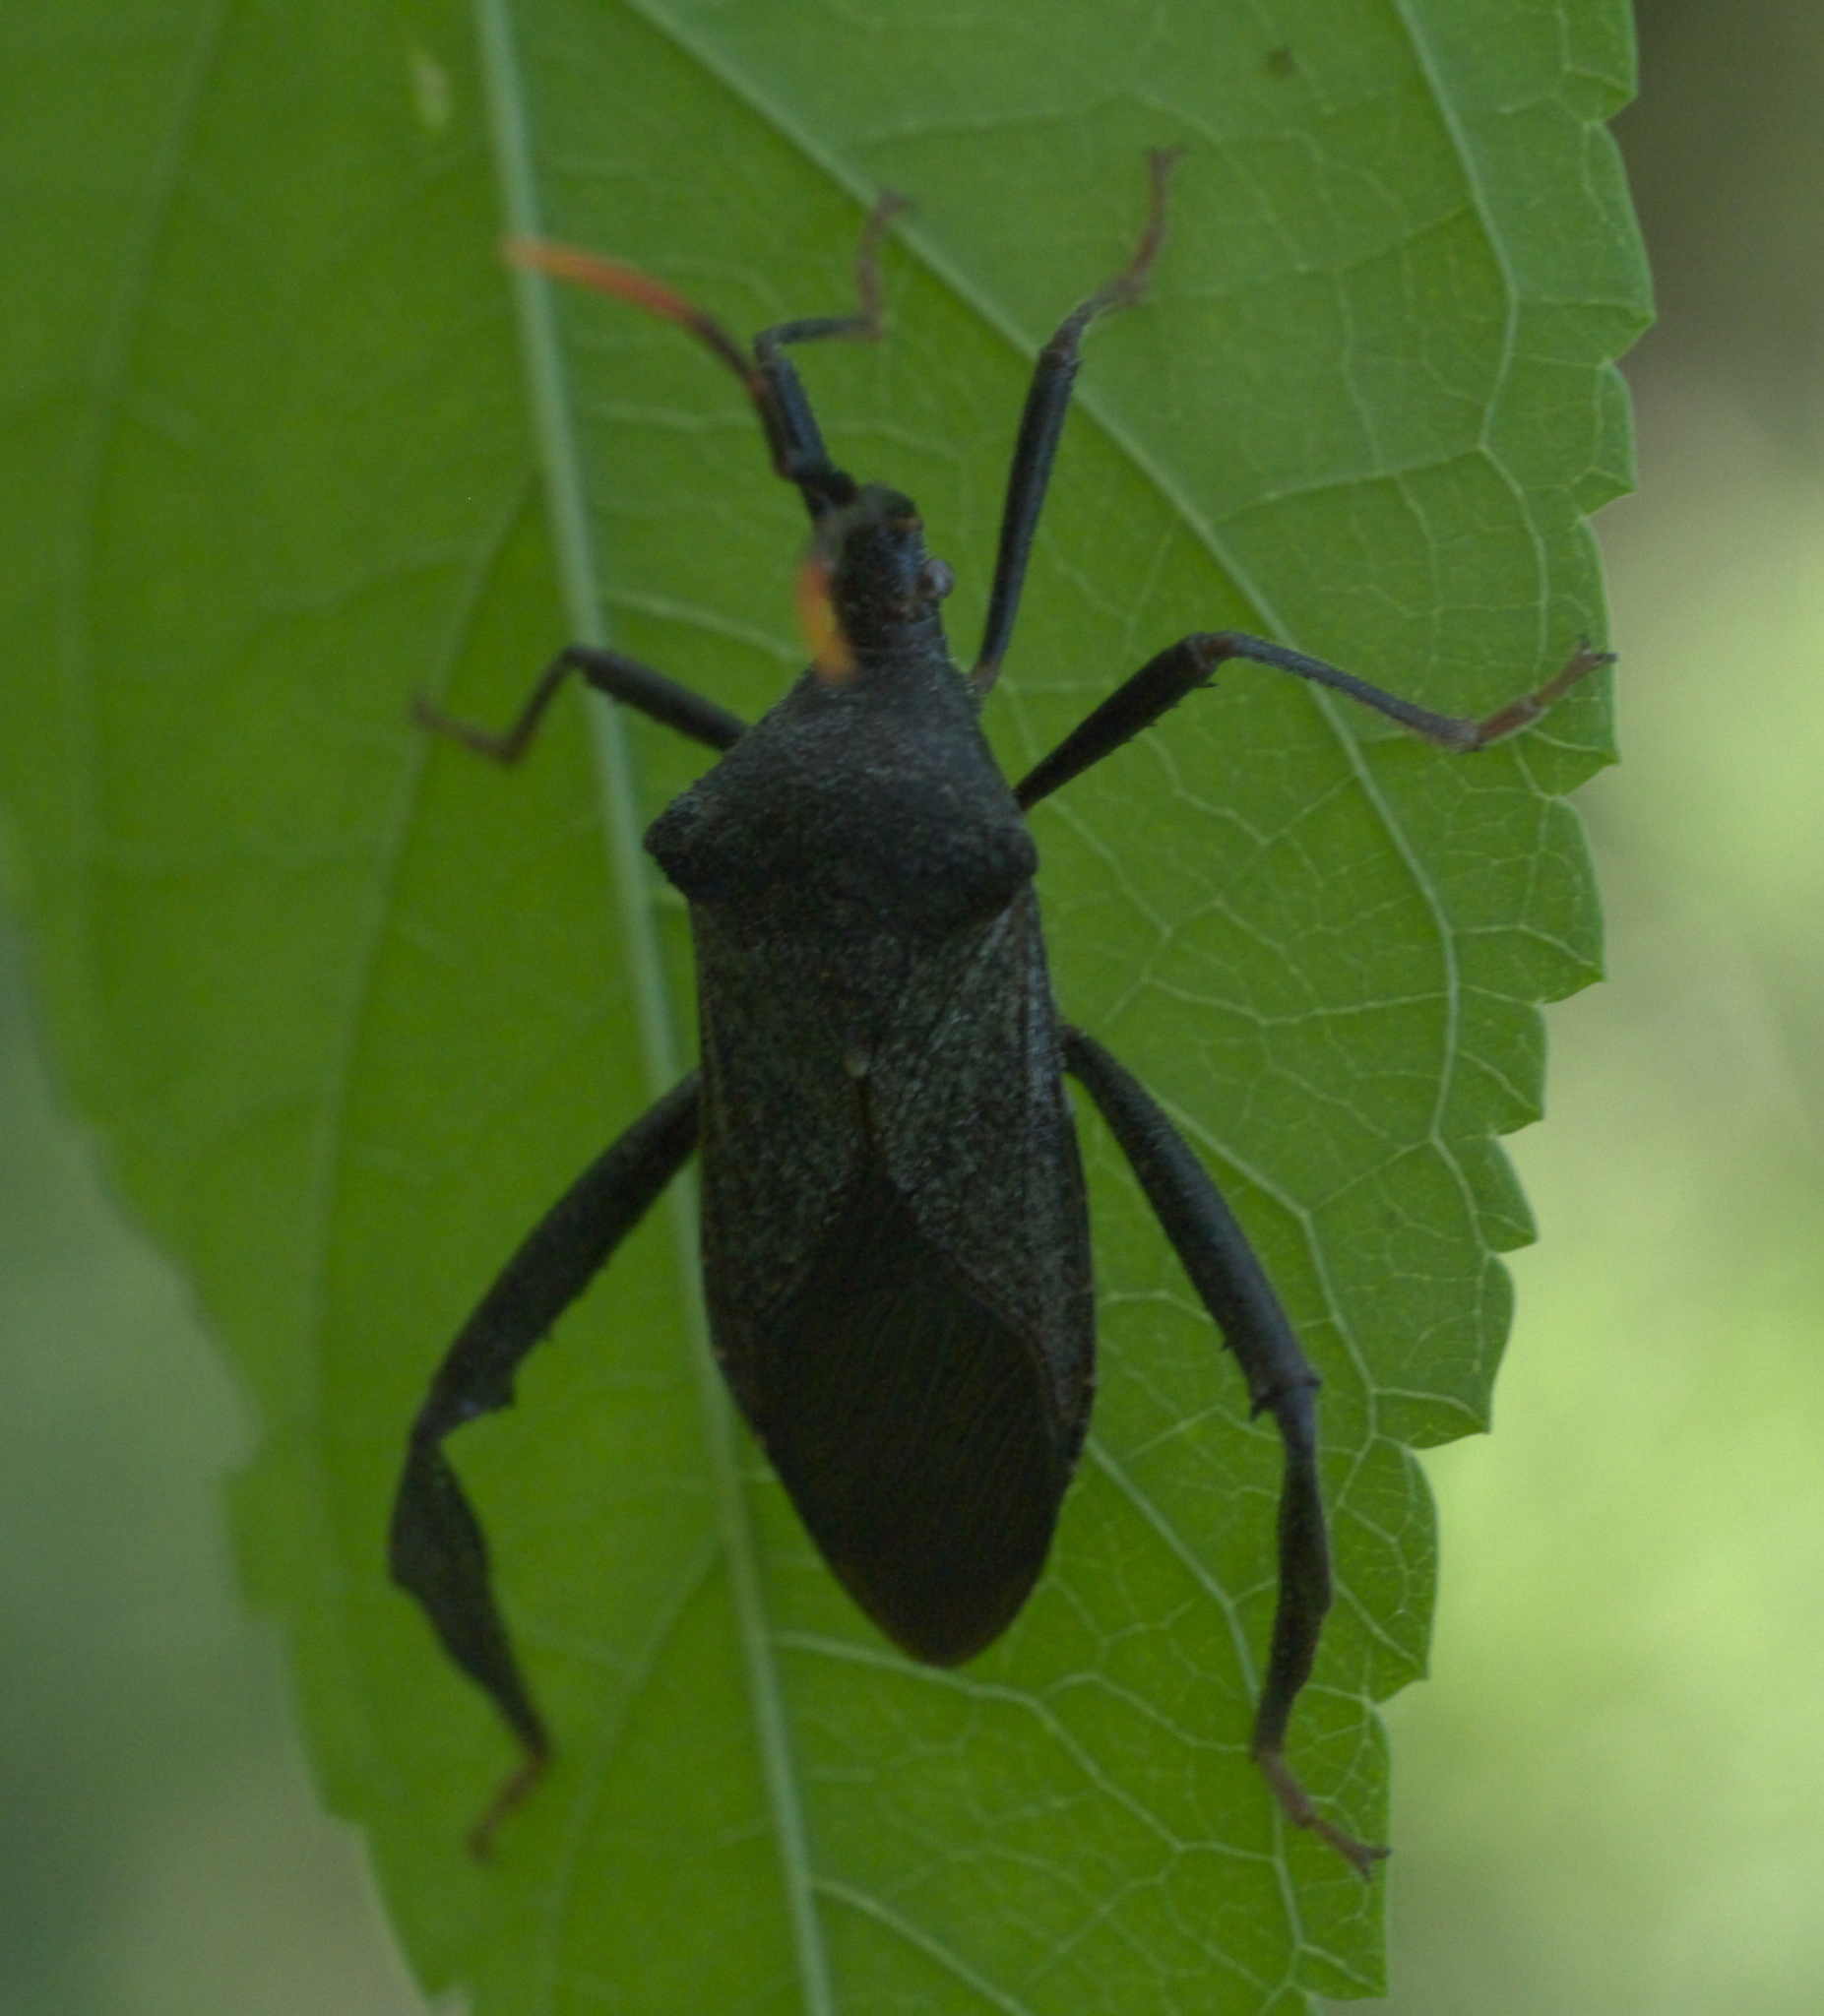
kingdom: Animalia
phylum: Arthropoda
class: Insecta
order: Hemiptera
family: Coreidae
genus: Acanthocephala
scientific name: Acanthocephala terminalis
